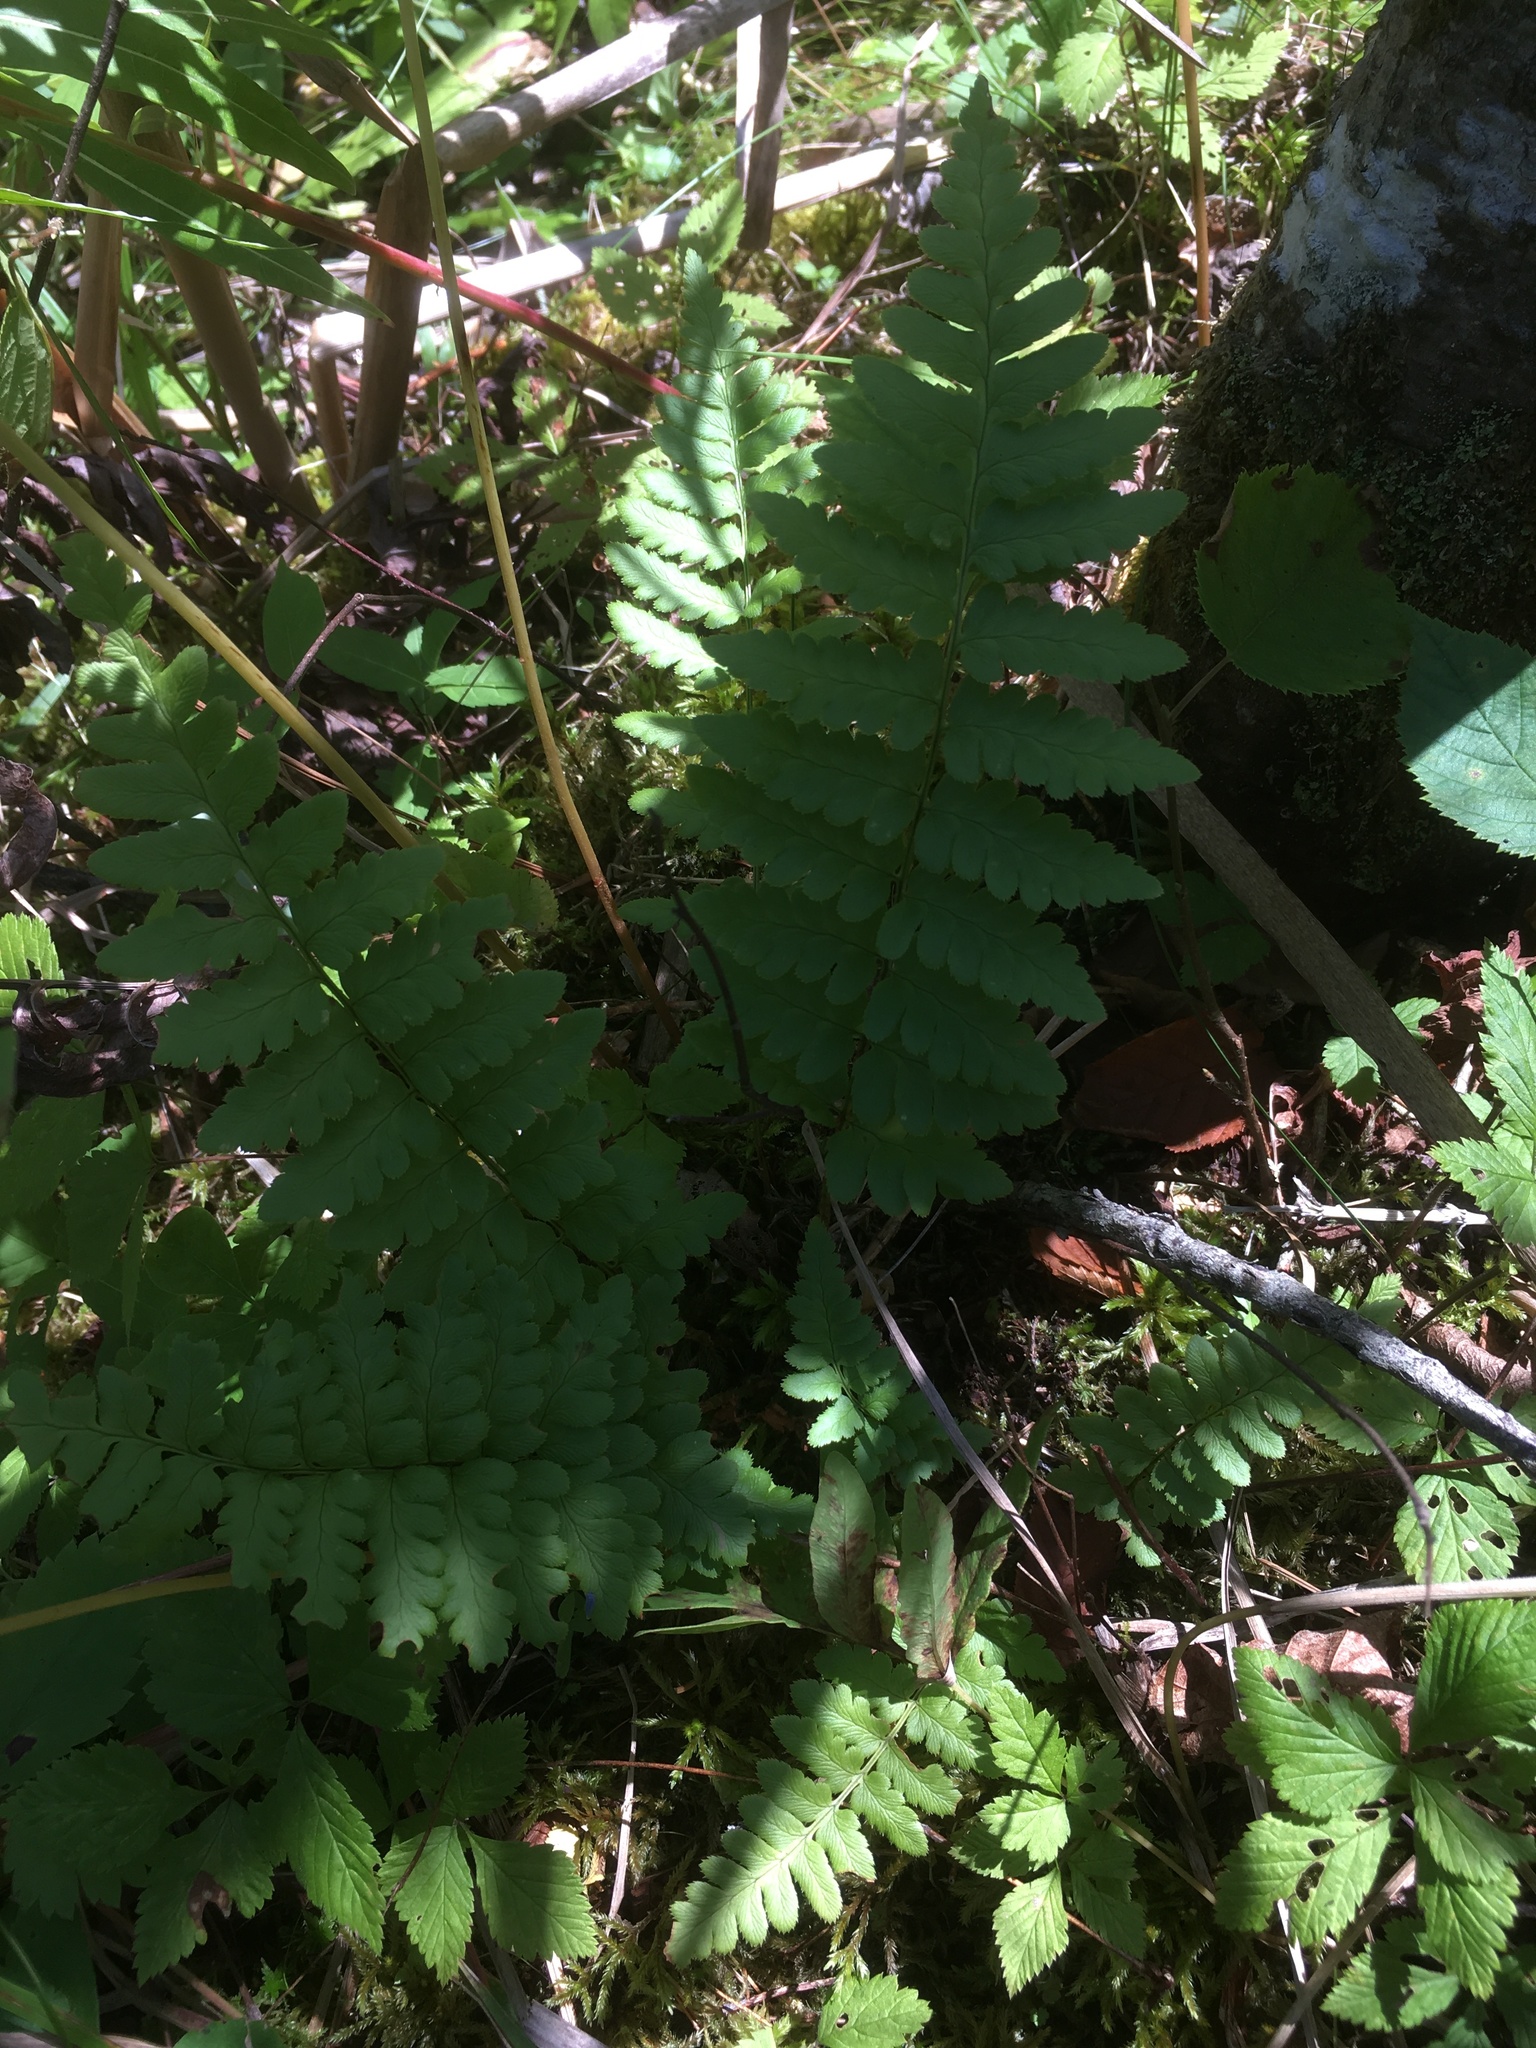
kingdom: Plantae
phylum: Tracheophyta
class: Polypodiopsida
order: Polypodiales
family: Dryopteridaceae
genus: Dryopteris
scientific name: Dryopteris cristata
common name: Crested wood fern
